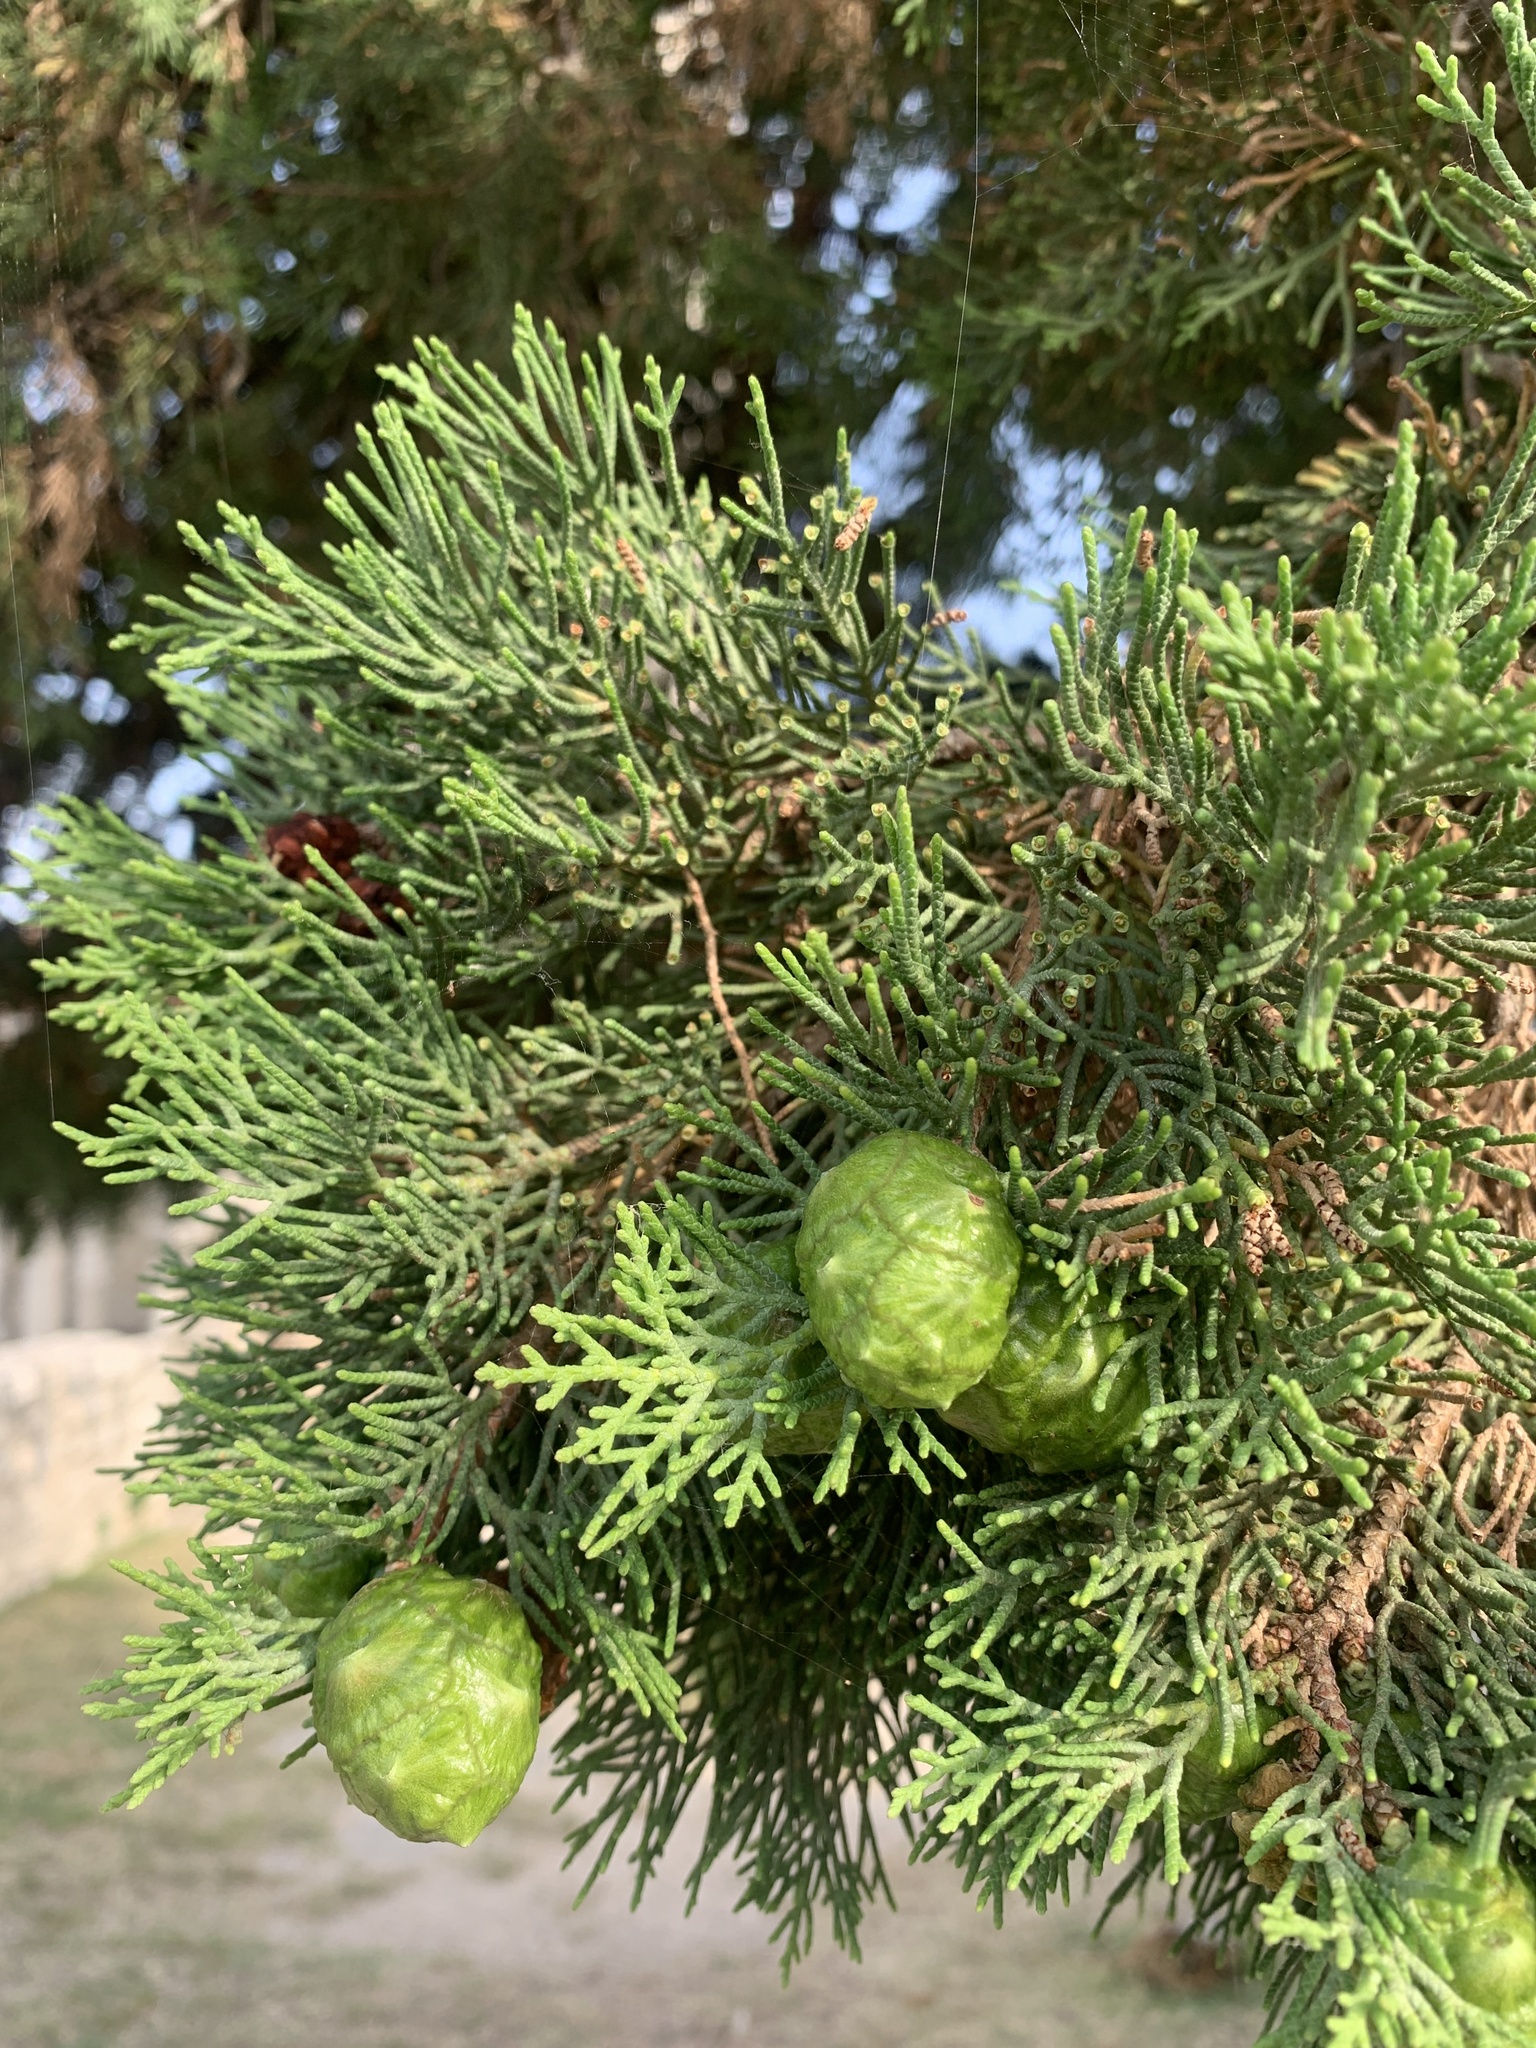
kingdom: Plantae
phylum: Tracheophyta
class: Pinopsida
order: Pinales
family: Cupressaceae
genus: Cupressus
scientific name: Cupressus sempervirens
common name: Italian cypress
